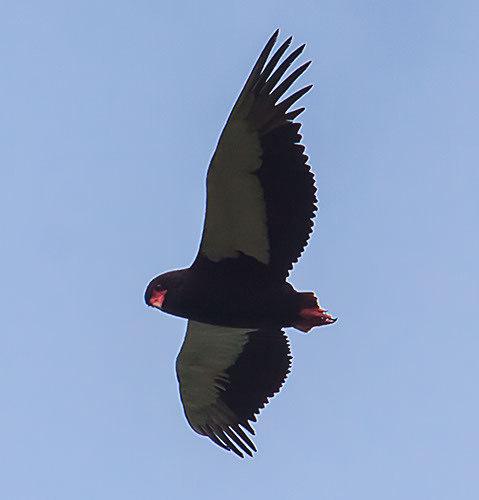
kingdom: Animalia
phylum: Chordata
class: Aves
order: Accipitriformes
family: Accipitridae
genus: Terathopius
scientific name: Terathopius ecaudatus
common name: Bateleur
